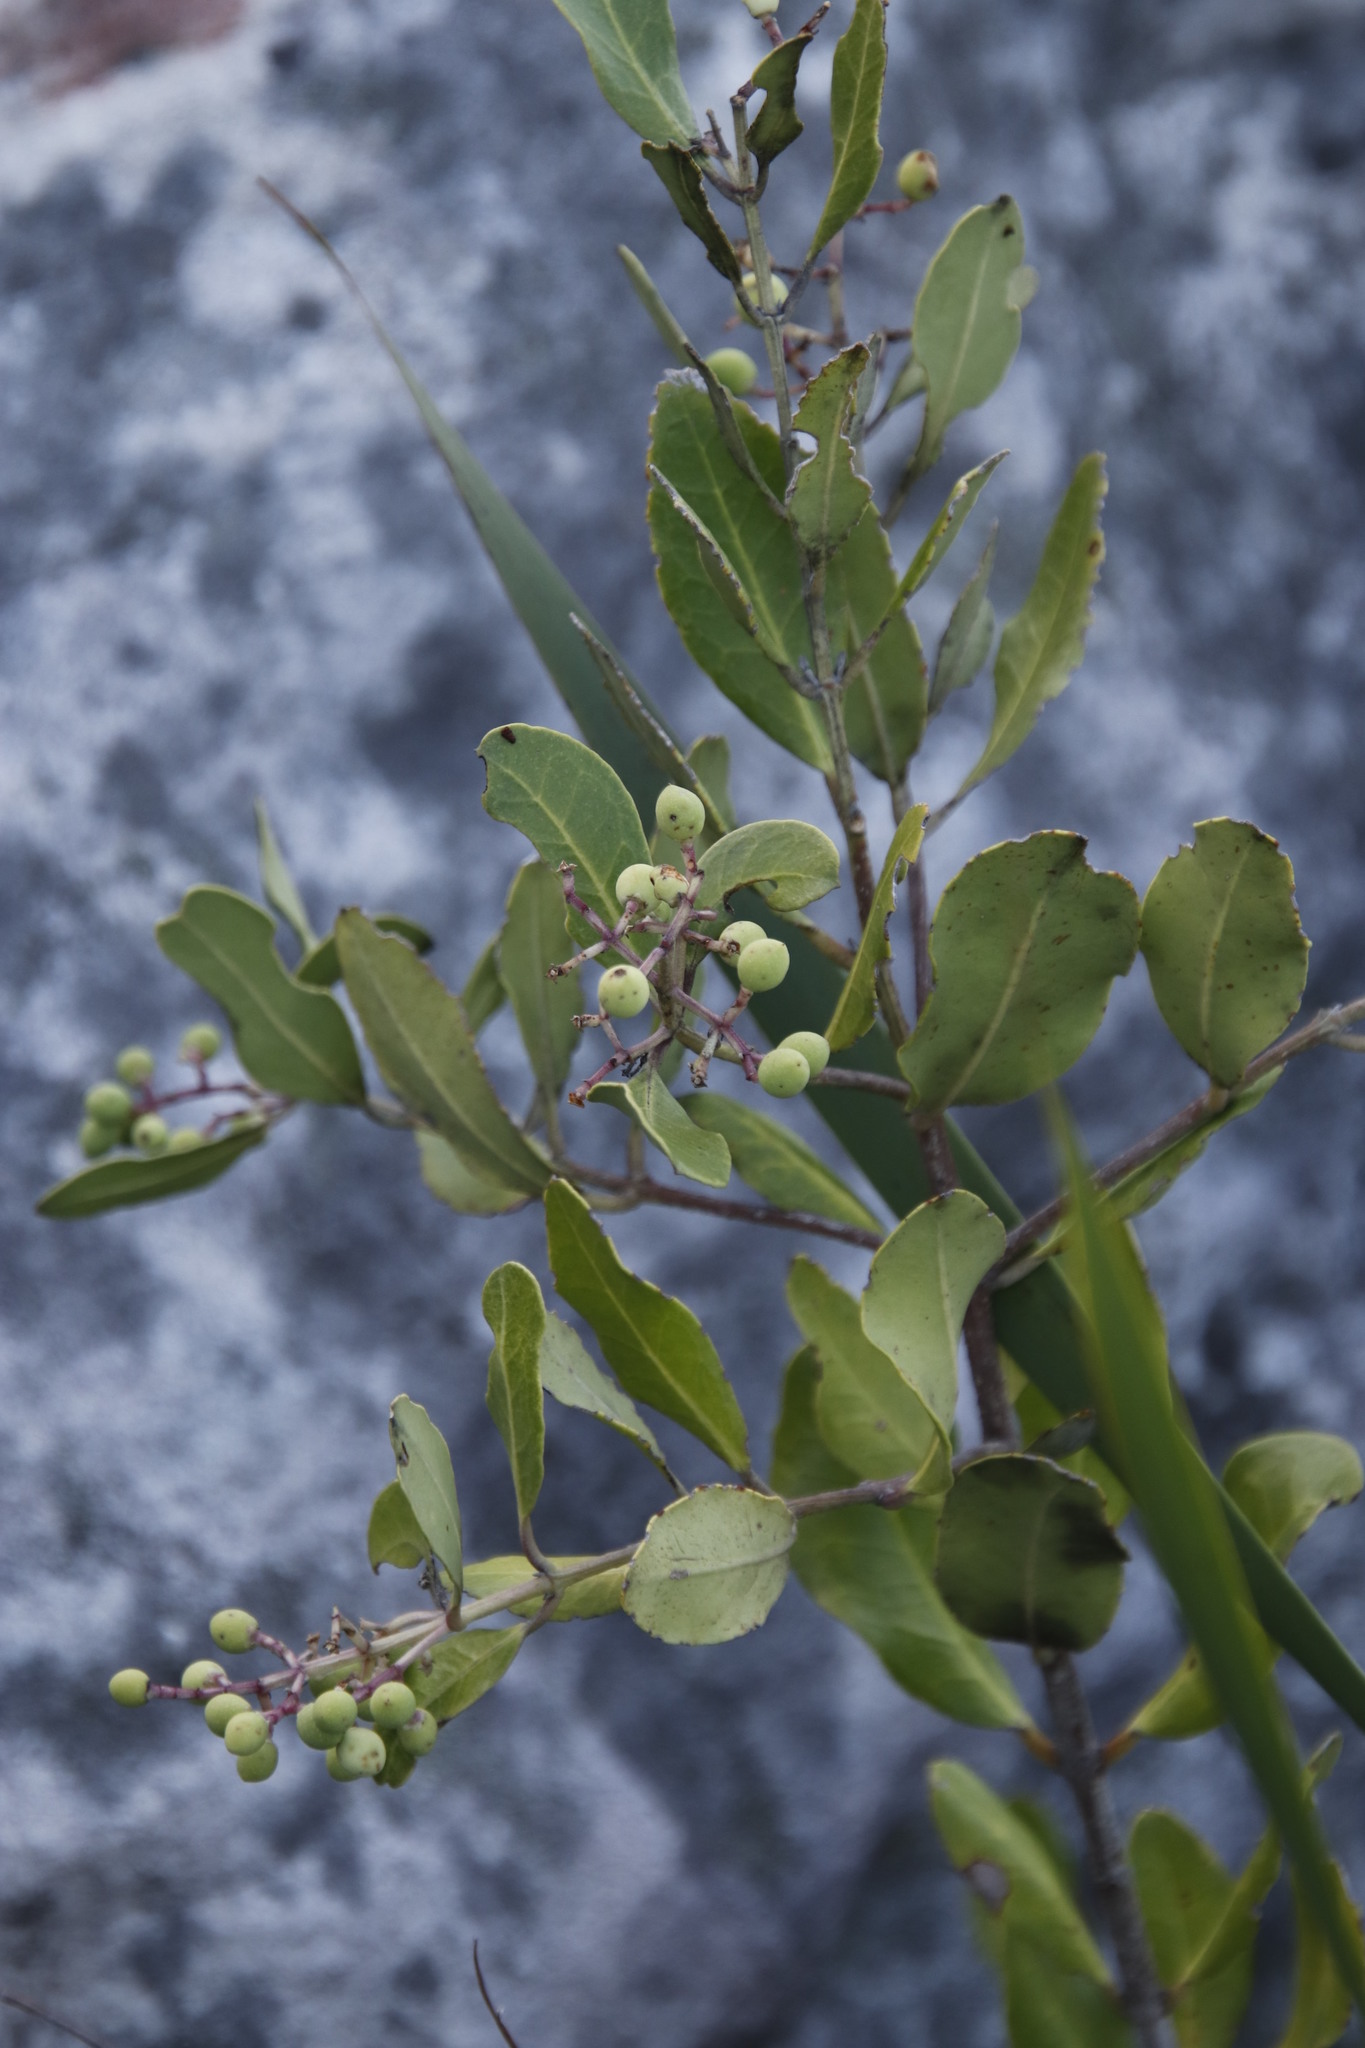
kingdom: Plantae
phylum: Tracheophyta
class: Magnoliopsida
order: Lamiales
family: Oleaceae
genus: Olea
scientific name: Olea capensis
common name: Black ironwood
